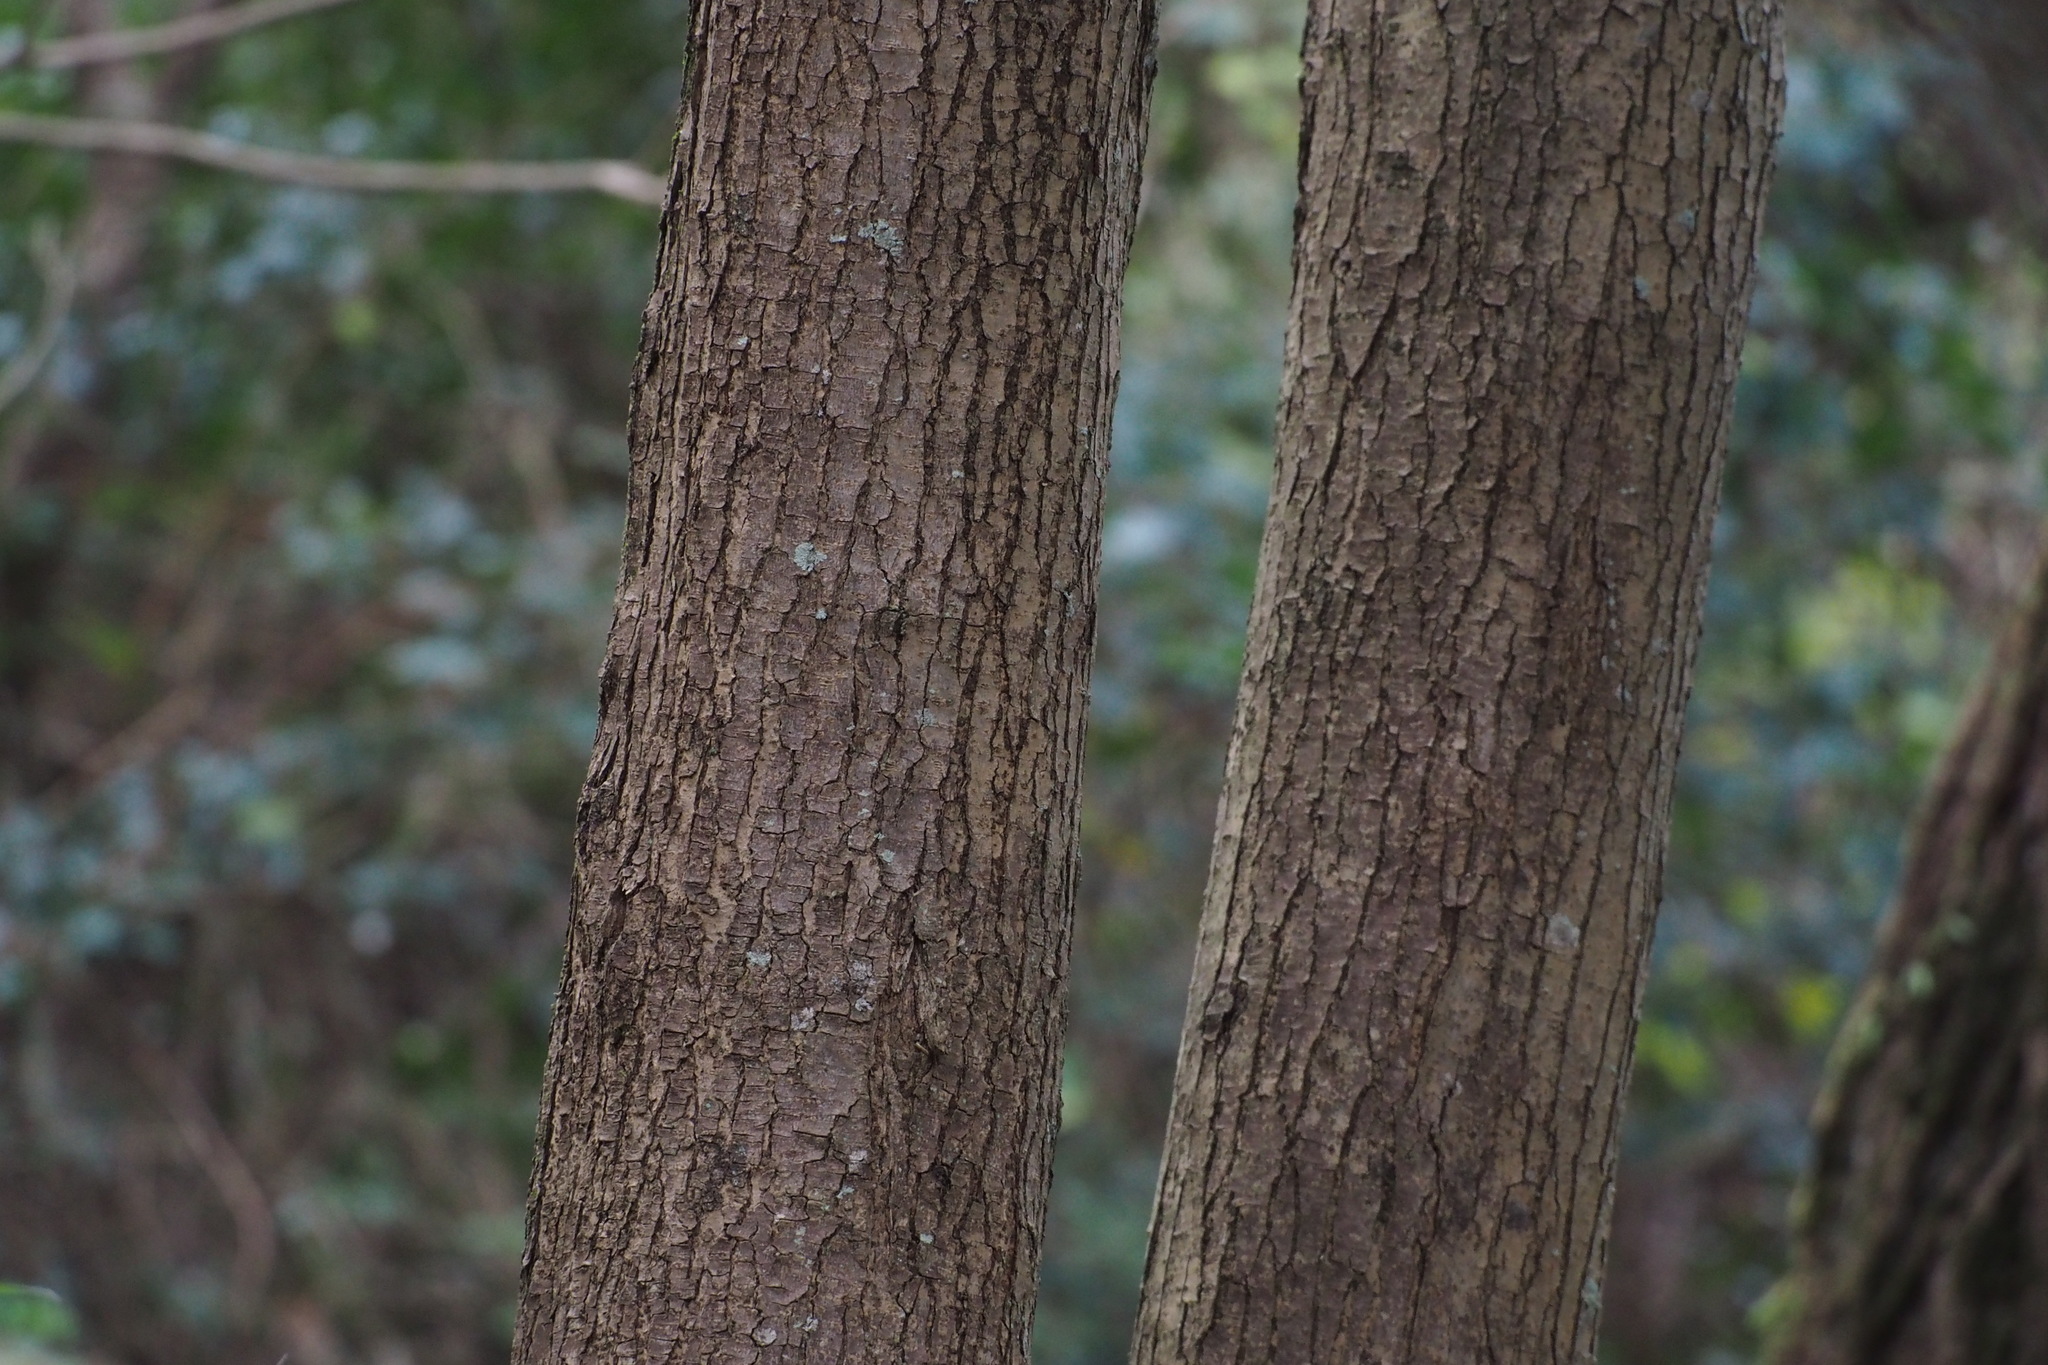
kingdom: Plantae
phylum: Tracheophyta
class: Magnoliopsida
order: Sapindales
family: Anacardiaceae
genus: Toxicodendron
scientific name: Toxicodendron succedaneum
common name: Wax tree
